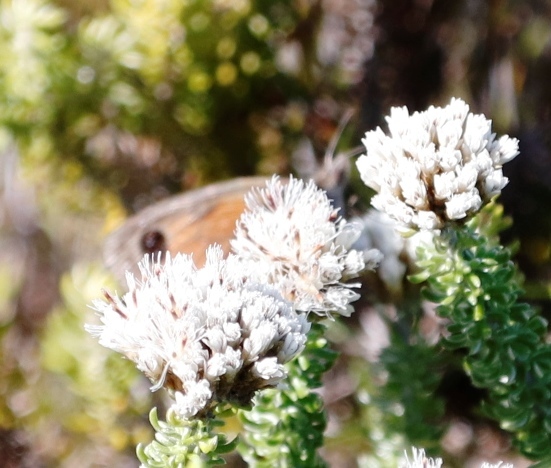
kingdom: Animalia
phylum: Arthropoda
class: Insecta
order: Lepidoptera
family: Nymphalidae
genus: Stygionympha
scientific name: Stygionympha vigilans
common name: Western hillside brown
